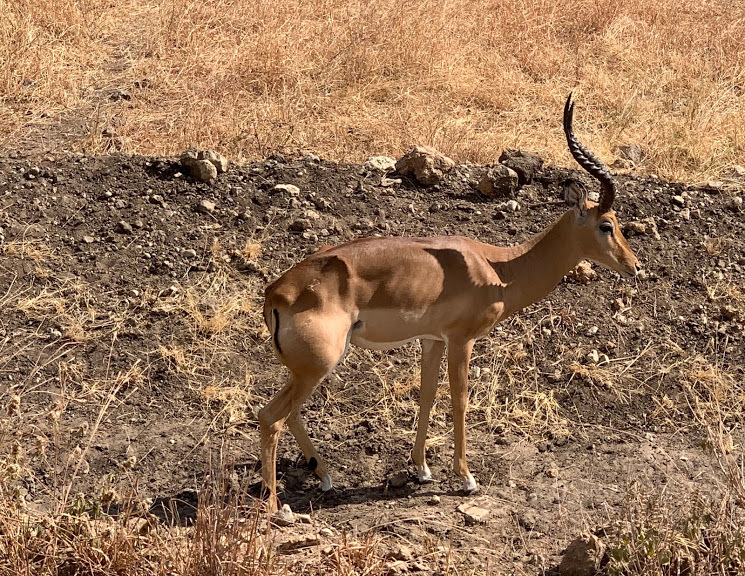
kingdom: Animalia
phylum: Chordata
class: Mammalia
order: Artiodactyla
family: Bovidae
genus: Aepyceros
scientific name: Aepyceros melampus
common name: Impala
